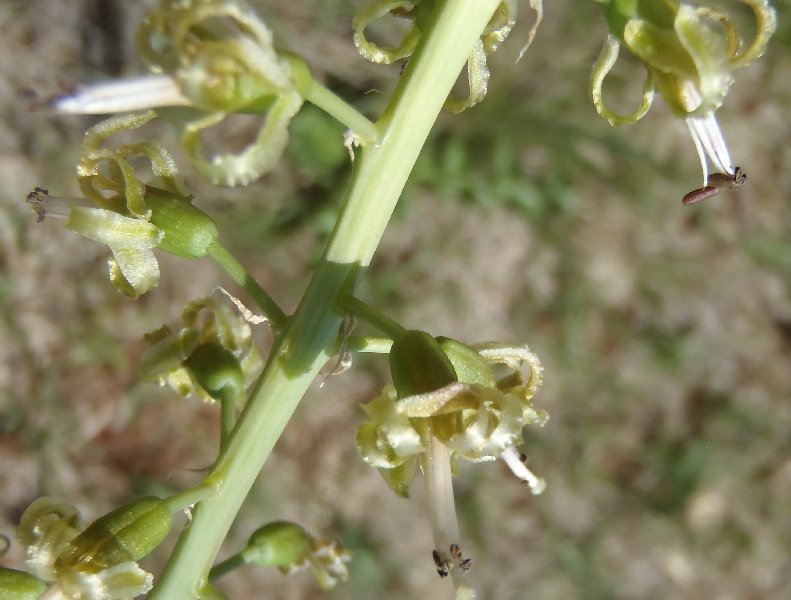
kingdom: Plantae
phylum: Tracheophyta
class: Liliopsida
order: Asparagales
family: Asparagaceae
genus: Drimia
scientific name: Drimia elata
